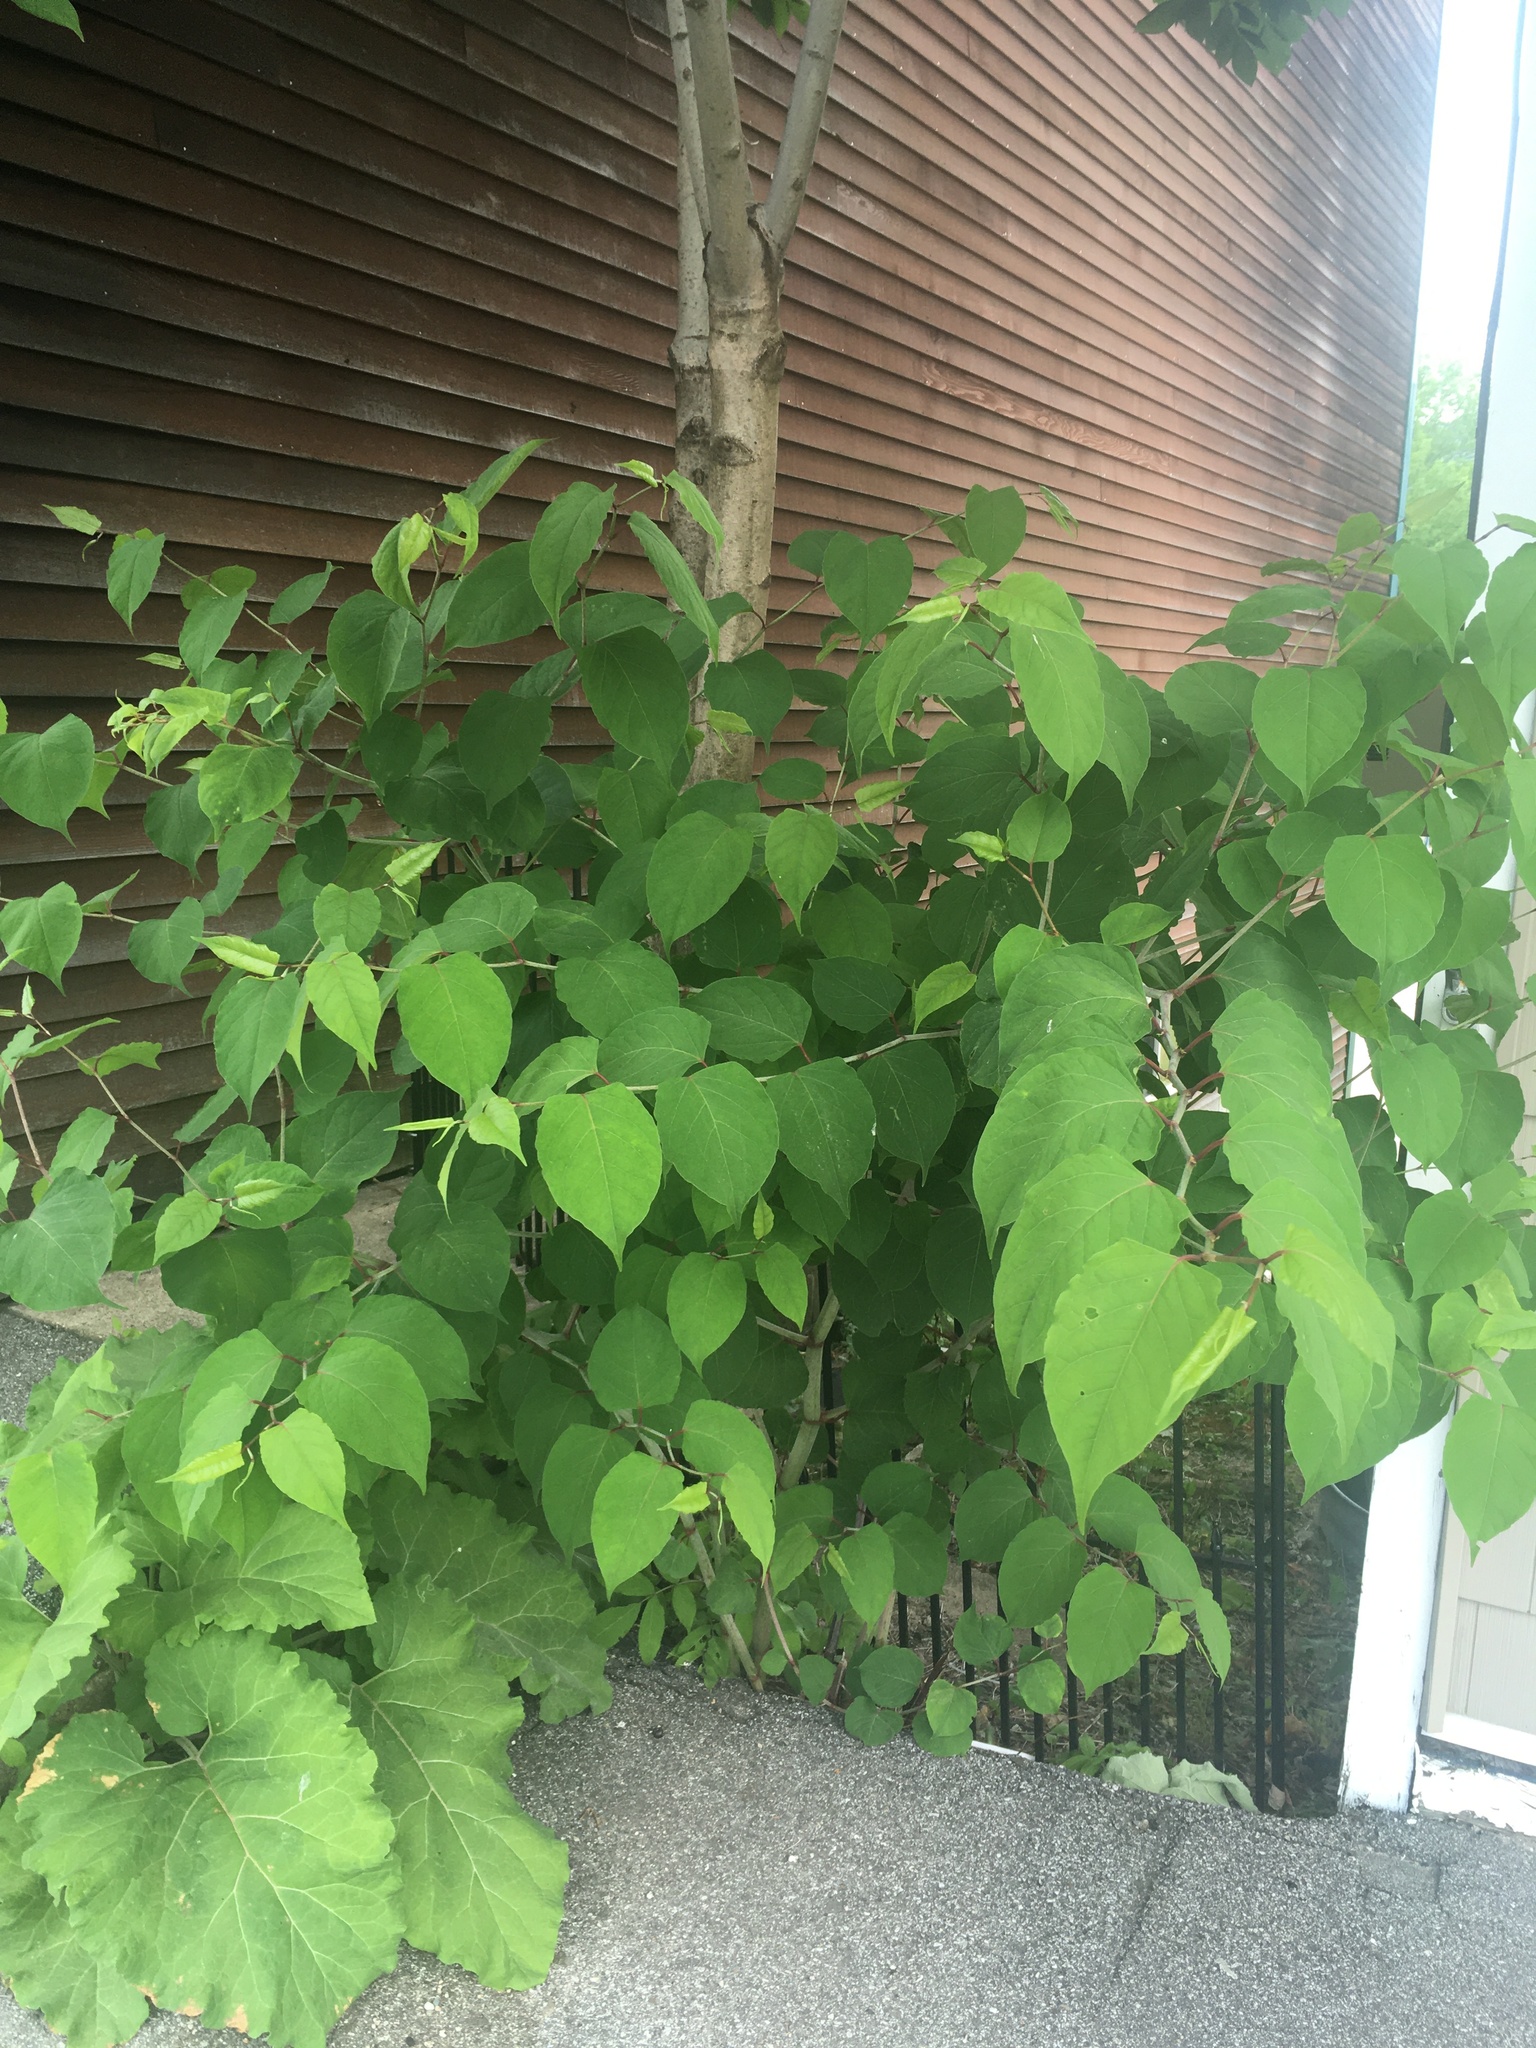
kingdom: Plantae
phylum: Tracheophyta
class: Magnoliopsida
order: Caryophyllales
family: Polygonaceae
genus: Reynoutria
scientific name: Reynoutria japonica
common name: Japanese knotweed
